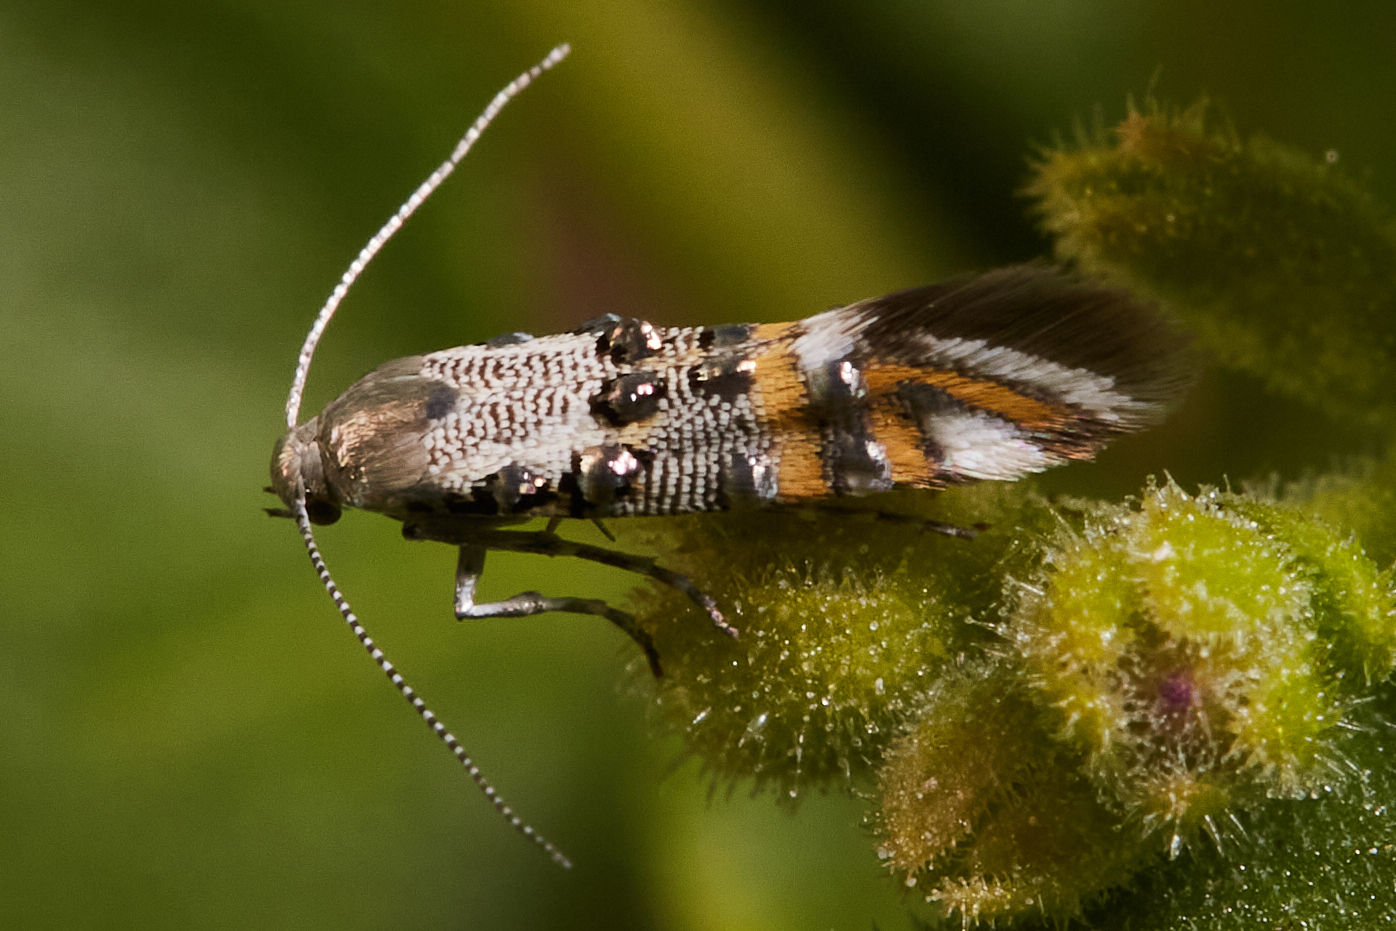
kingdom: Animalia
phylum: Arthropoda
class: Insecta
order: Lepidoptera
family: Heliodinidae
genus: Lithariapteryx
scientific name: Lithariapteryx jubarella
